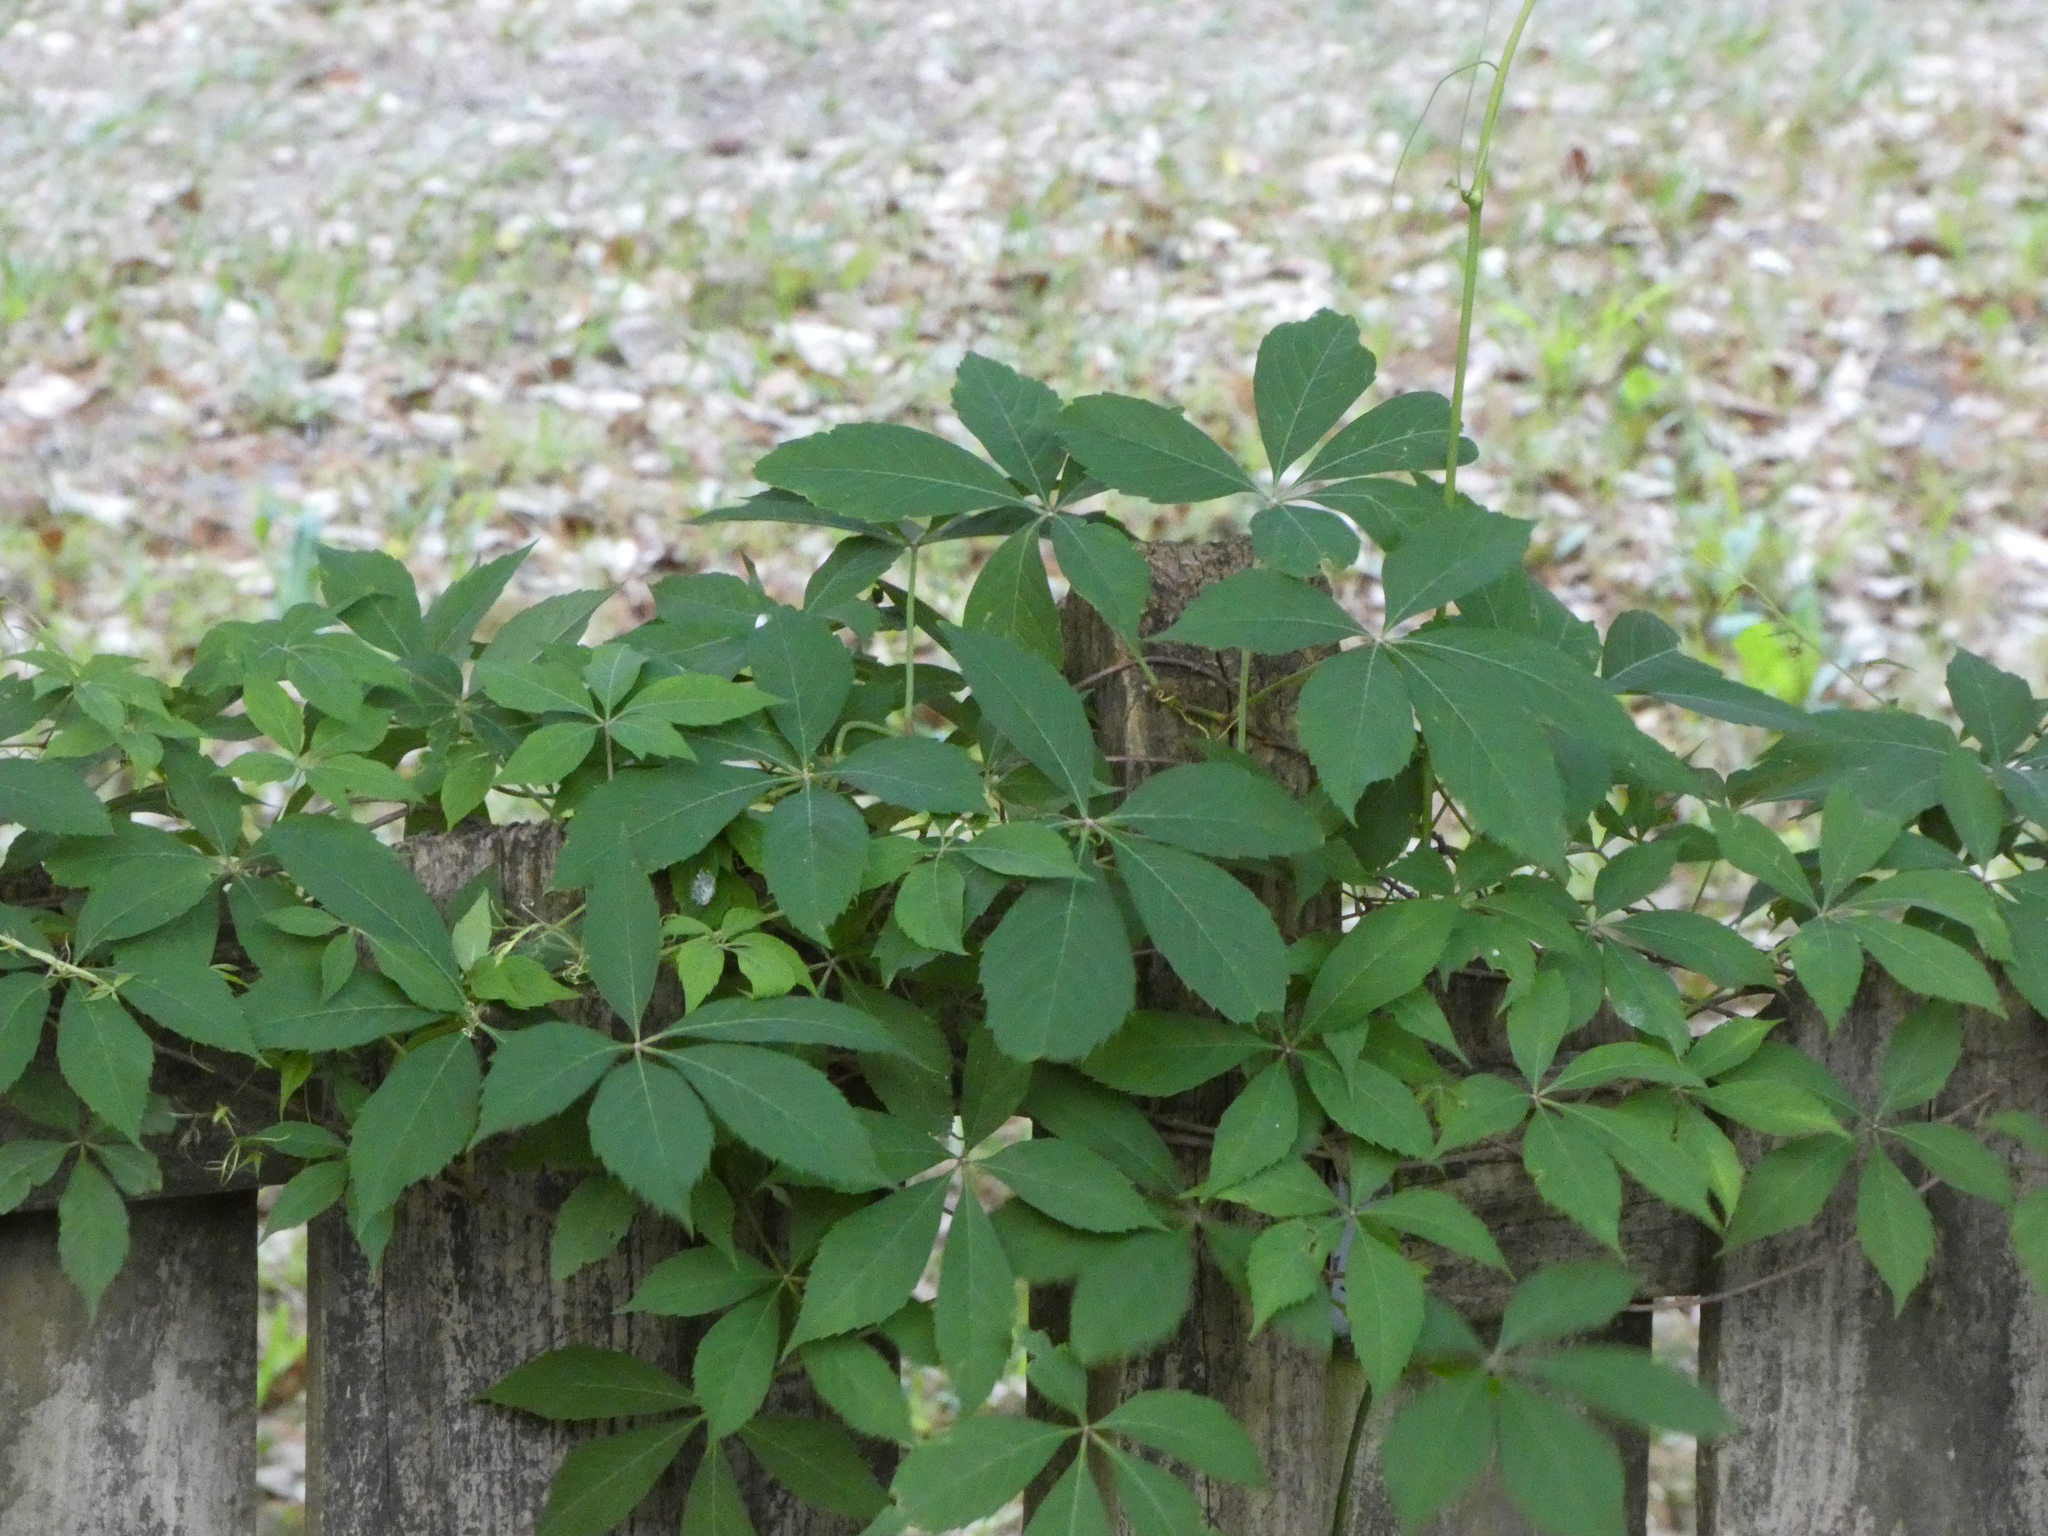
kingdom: Plantae
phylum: Tracheophyta
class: Magnoliopsida
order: Vitales
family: Vitaceae
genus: Parthenocissus
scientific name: Parthenocissus quinquefolia
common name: Virginia-creeper
